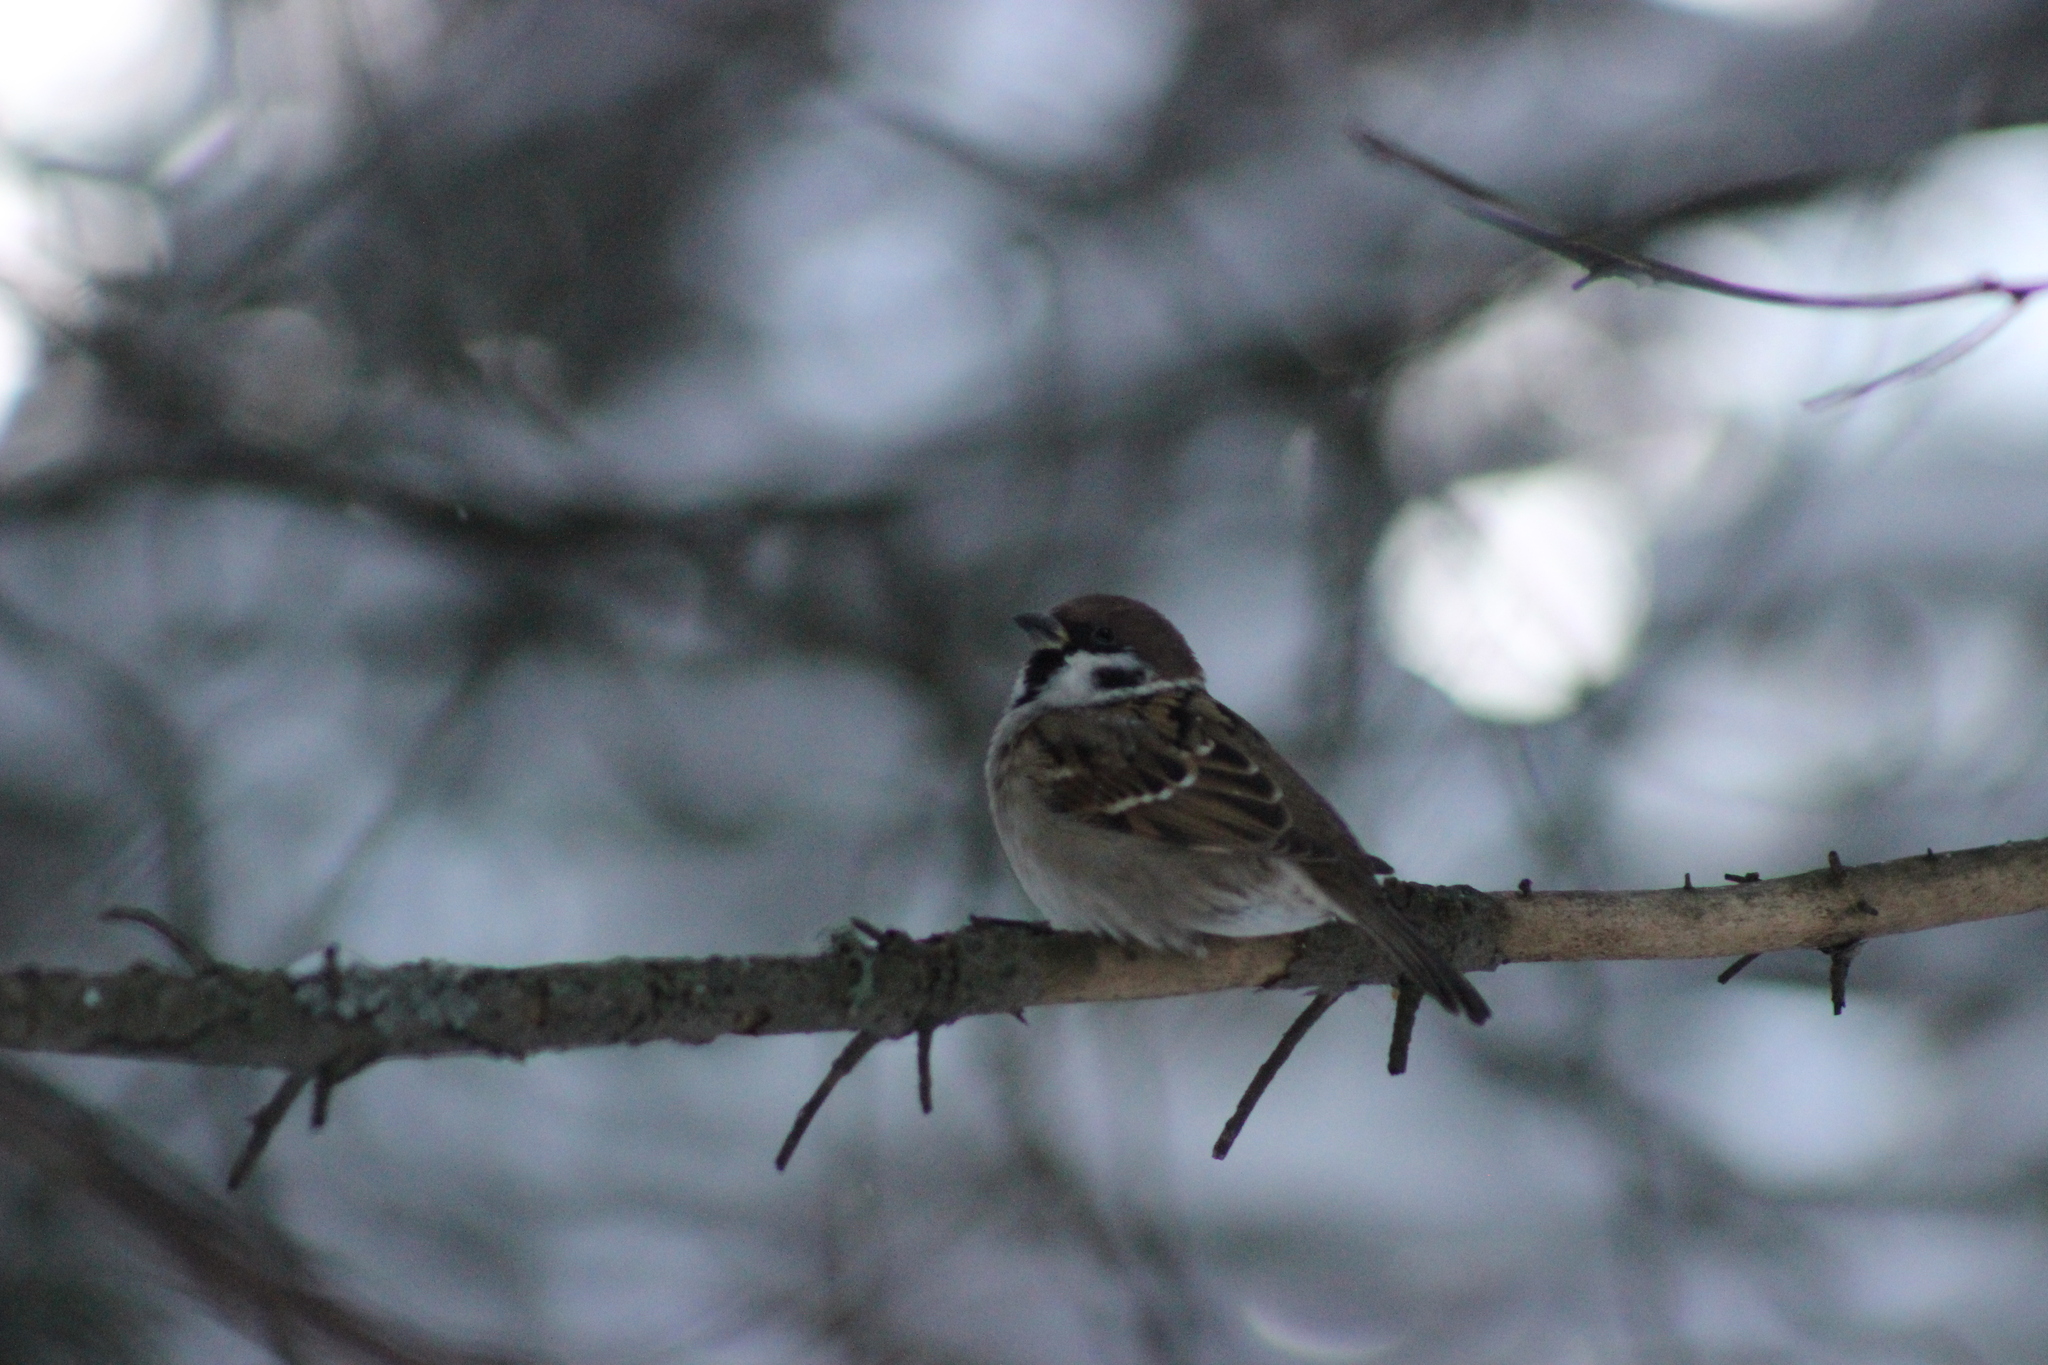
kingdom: Animalia
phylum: Chordata
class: Aves
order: Passeriformes
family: Passeridae
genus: Passer
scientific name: Passer montanus
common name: Eurasian tree sparrow
